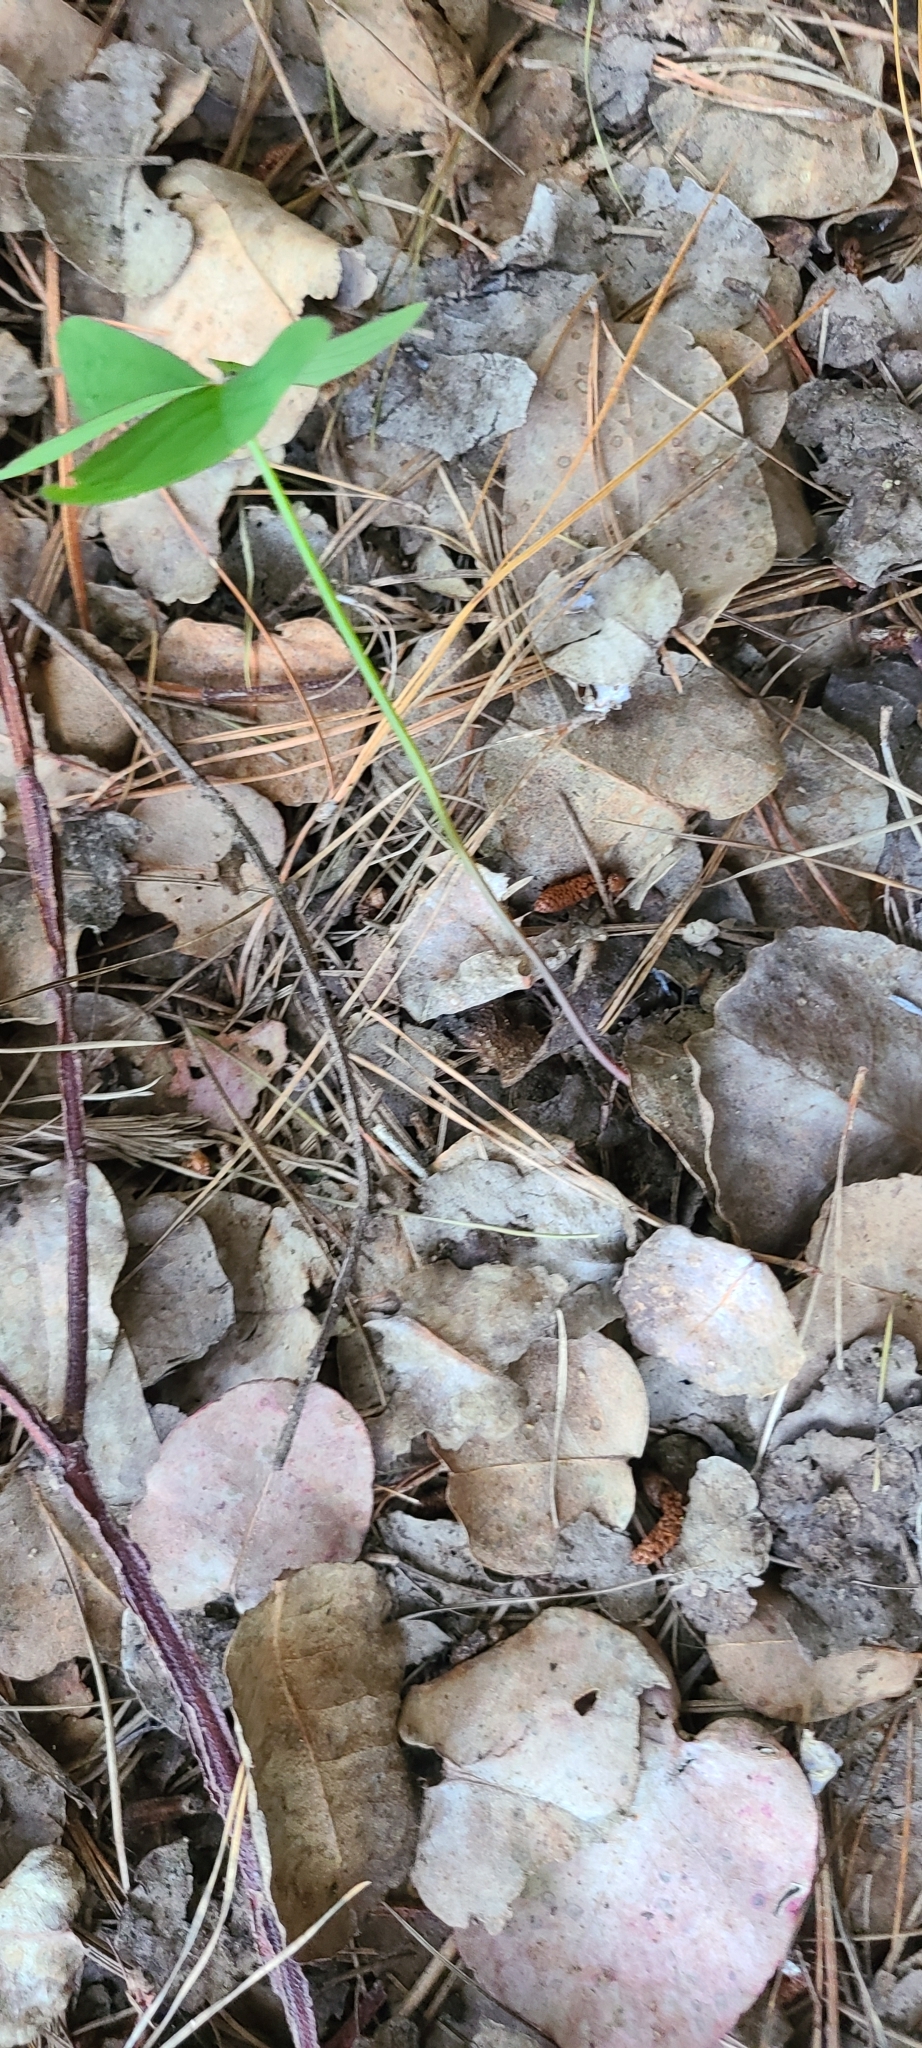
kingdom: Plantae
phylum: Tracheophyta
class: Magnoliopsida
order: Oxalidales
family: Oxalidaceae
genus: Oxalis
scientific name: Oxalis latifolia
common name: Garden pink-sorrel
